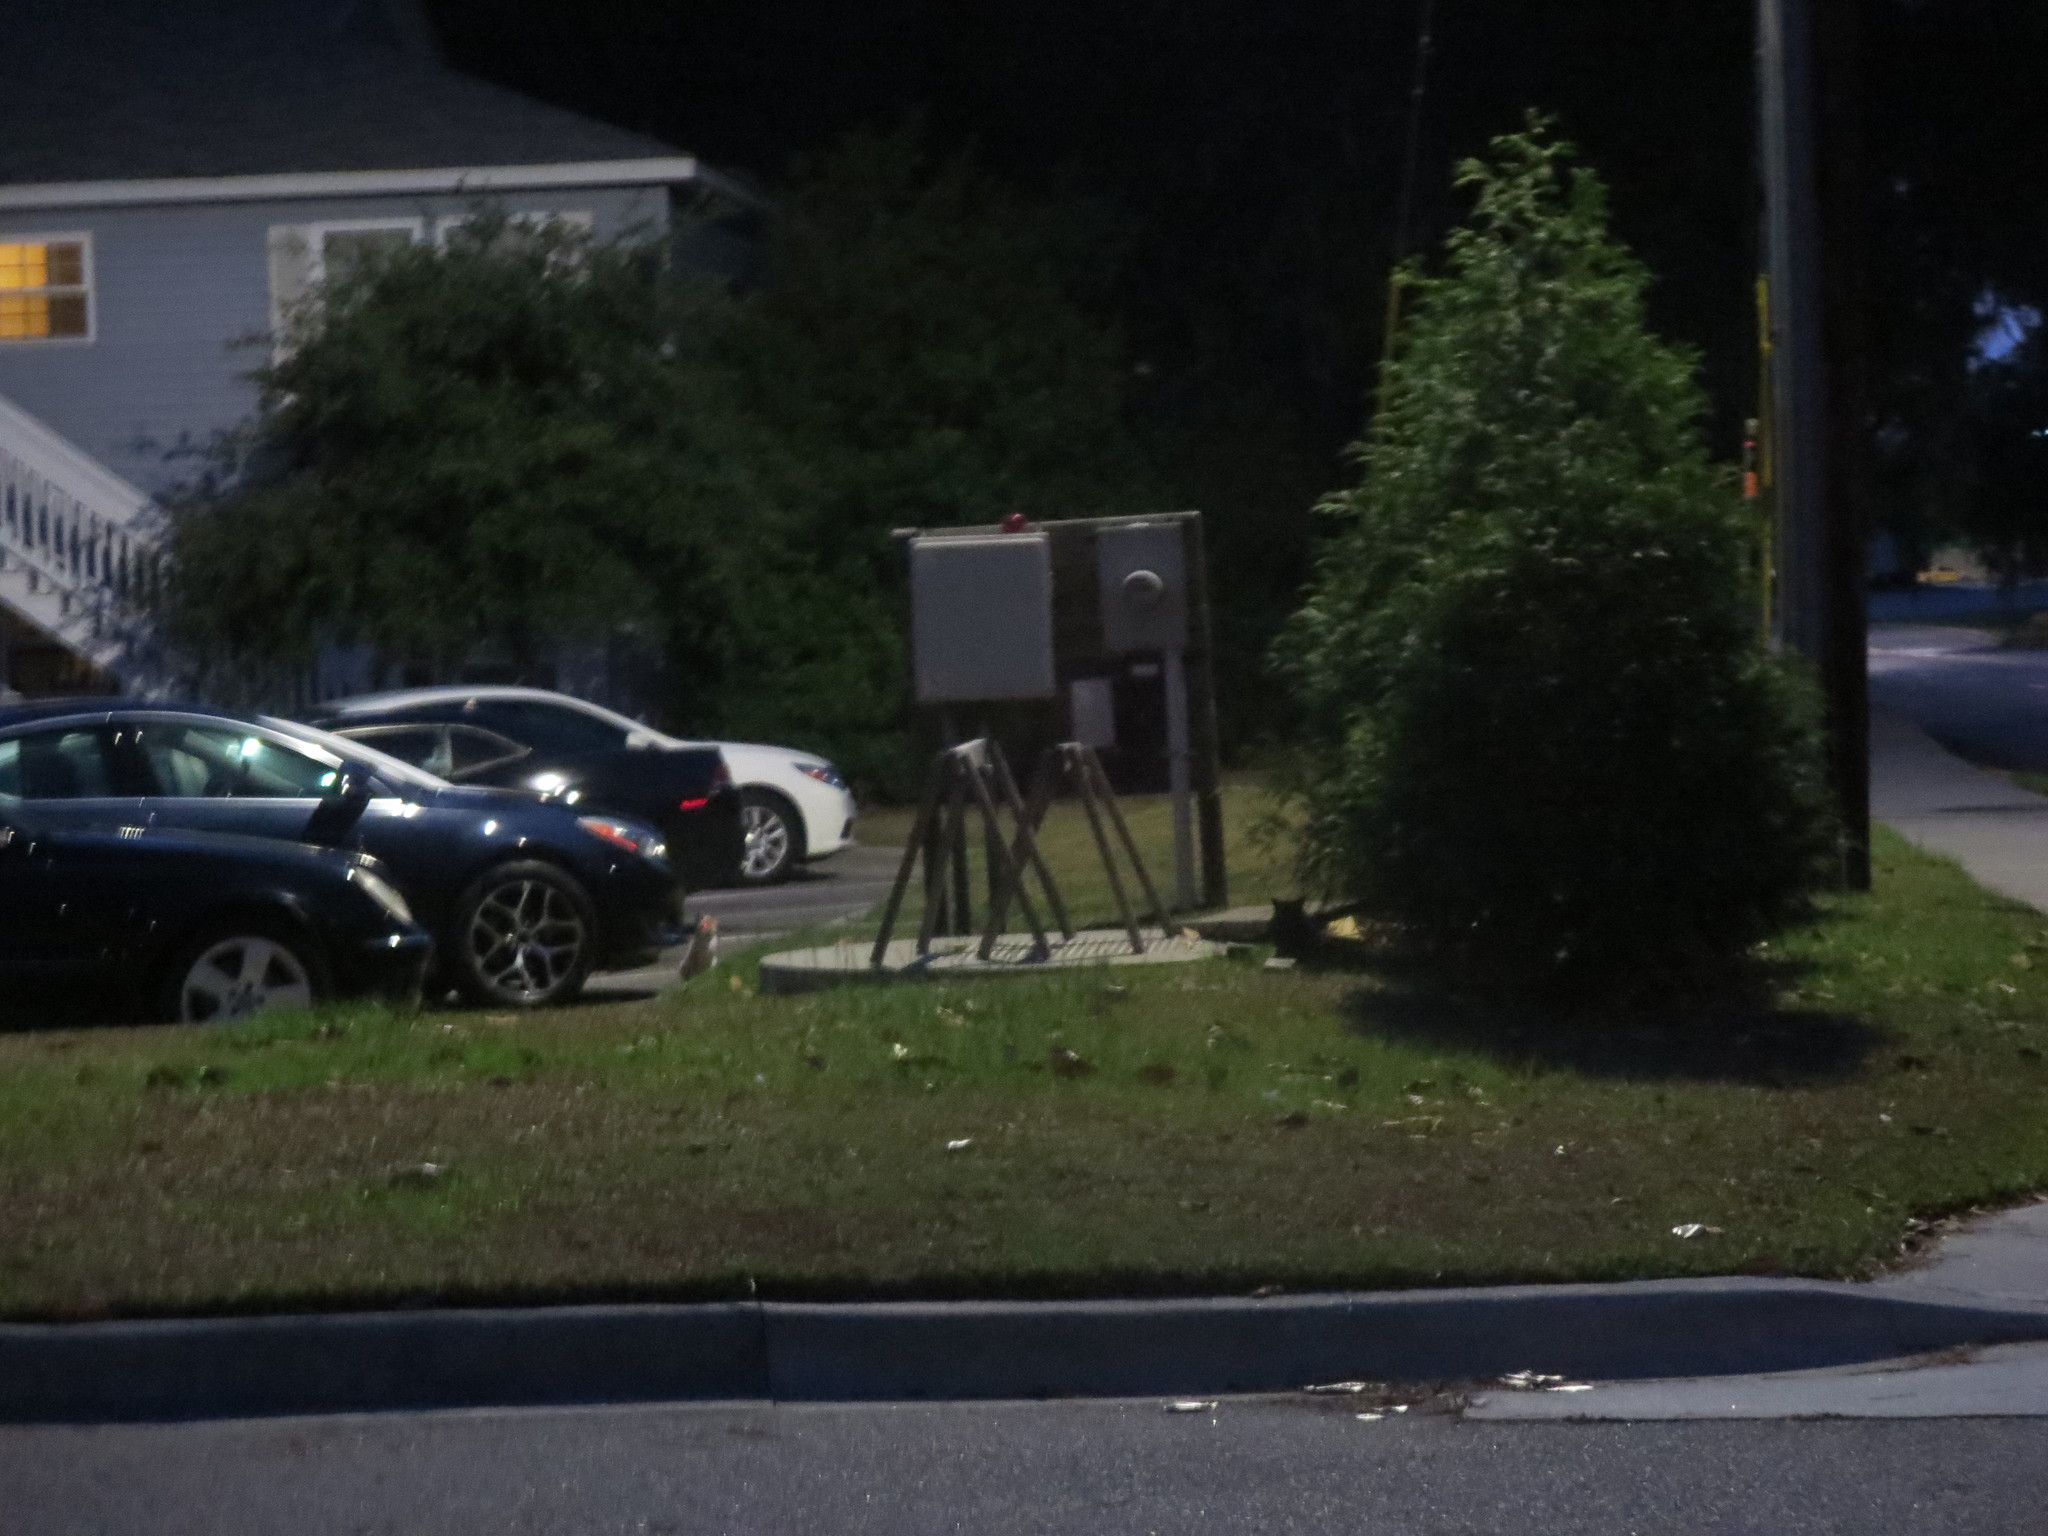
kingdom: Animalia
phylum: Chordata
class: Mammalia
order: Carnivora
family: Felidae
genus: Felis
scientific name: Felis catus
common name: Domestic cat
